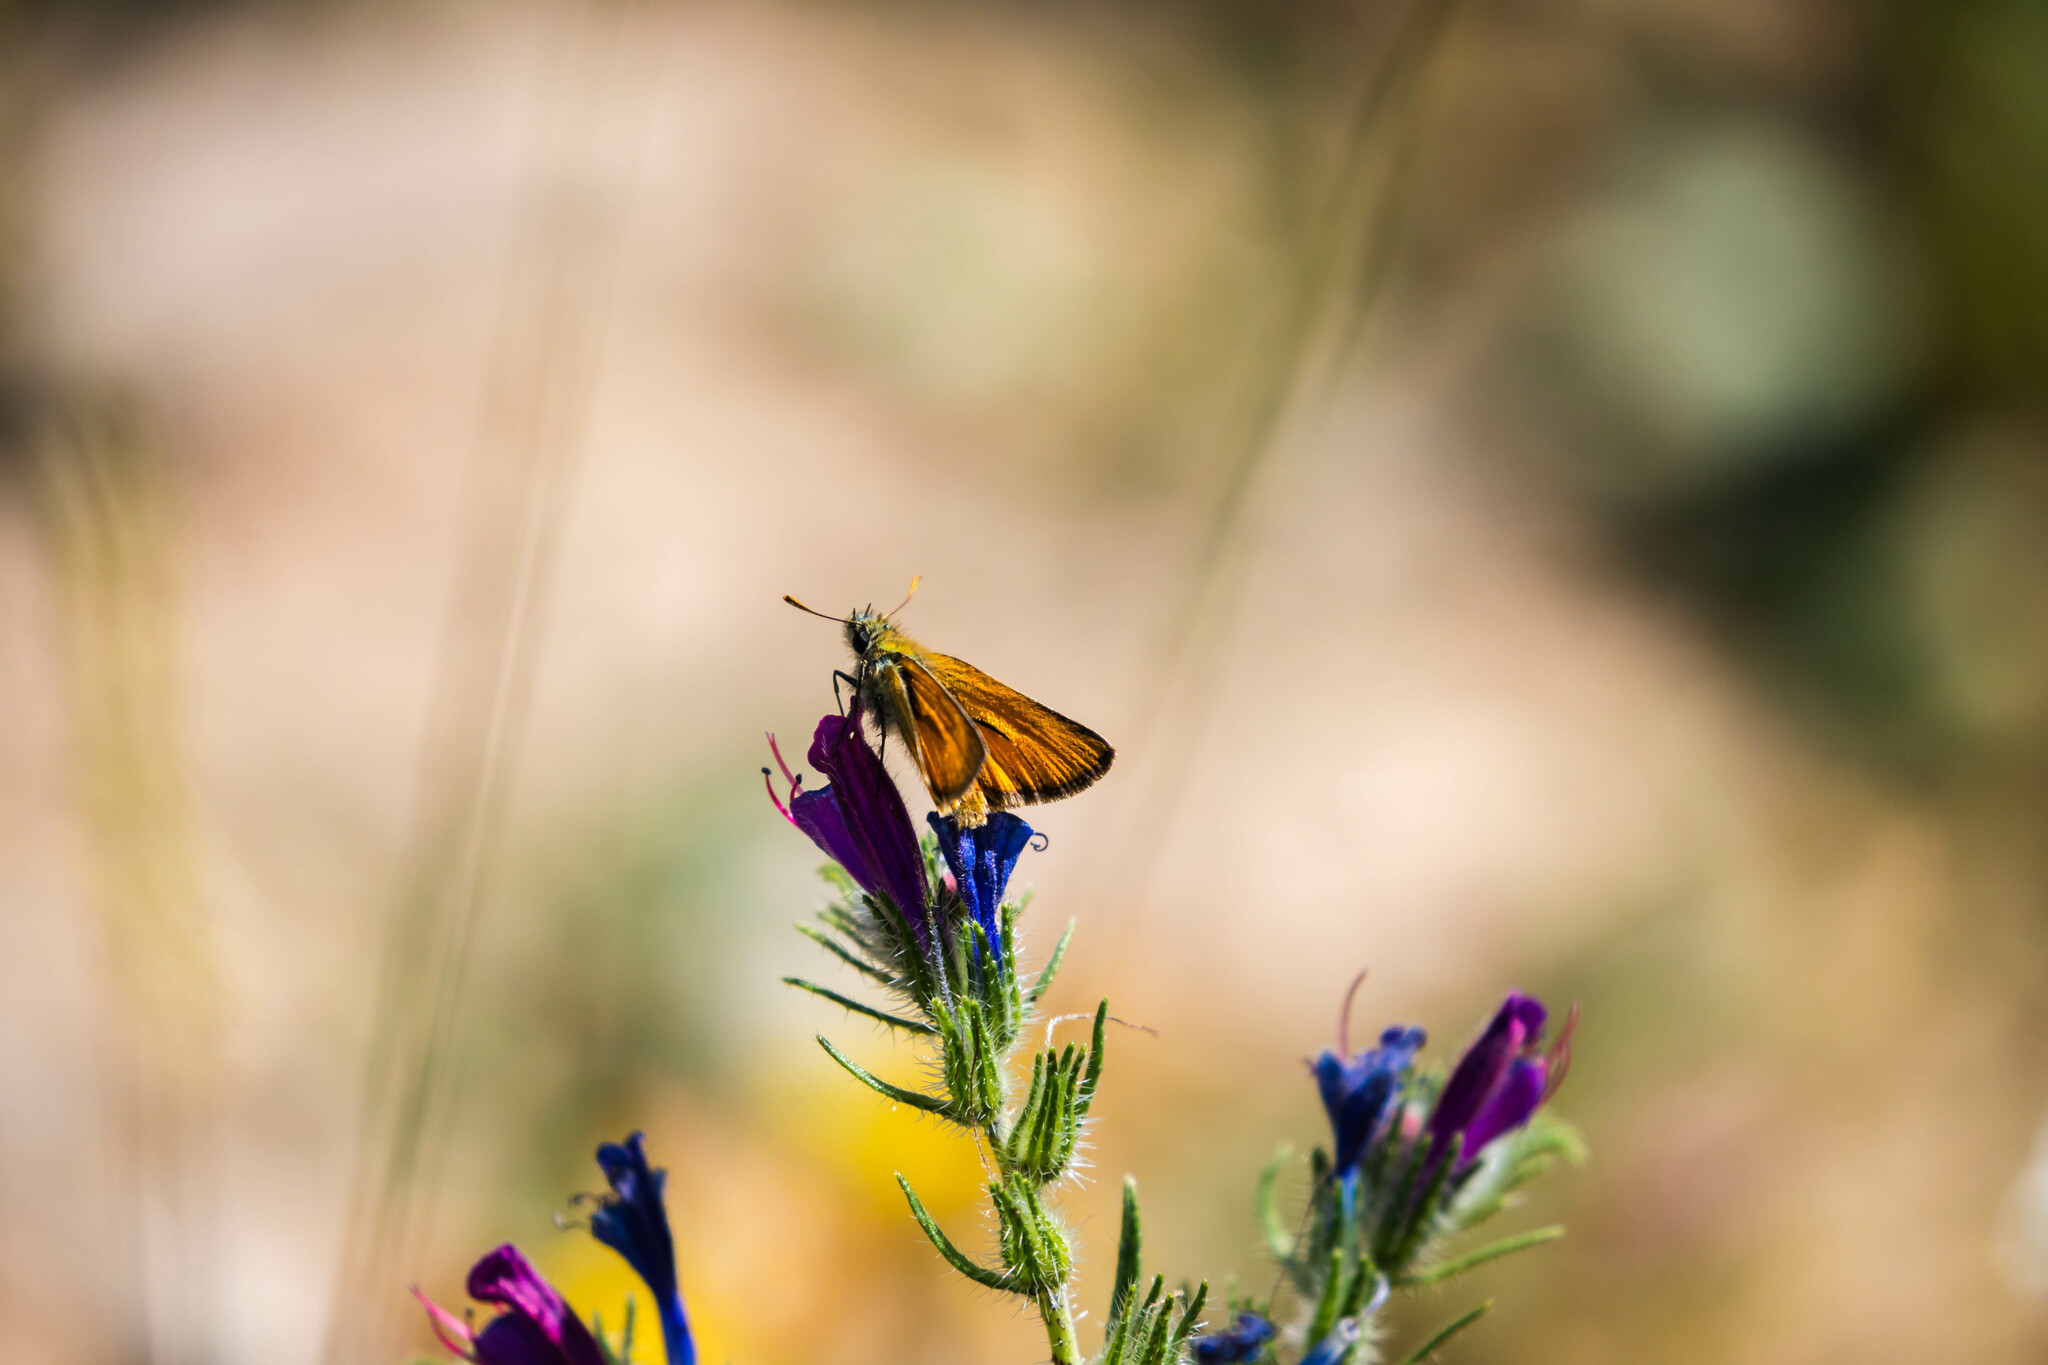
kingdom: Animalia
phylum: Arthropoda
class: Insecta
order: Lepidoptera
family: Hesperiidae
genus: Thymelicus
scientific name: Thymelicus sylvestris
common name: Small skipper
